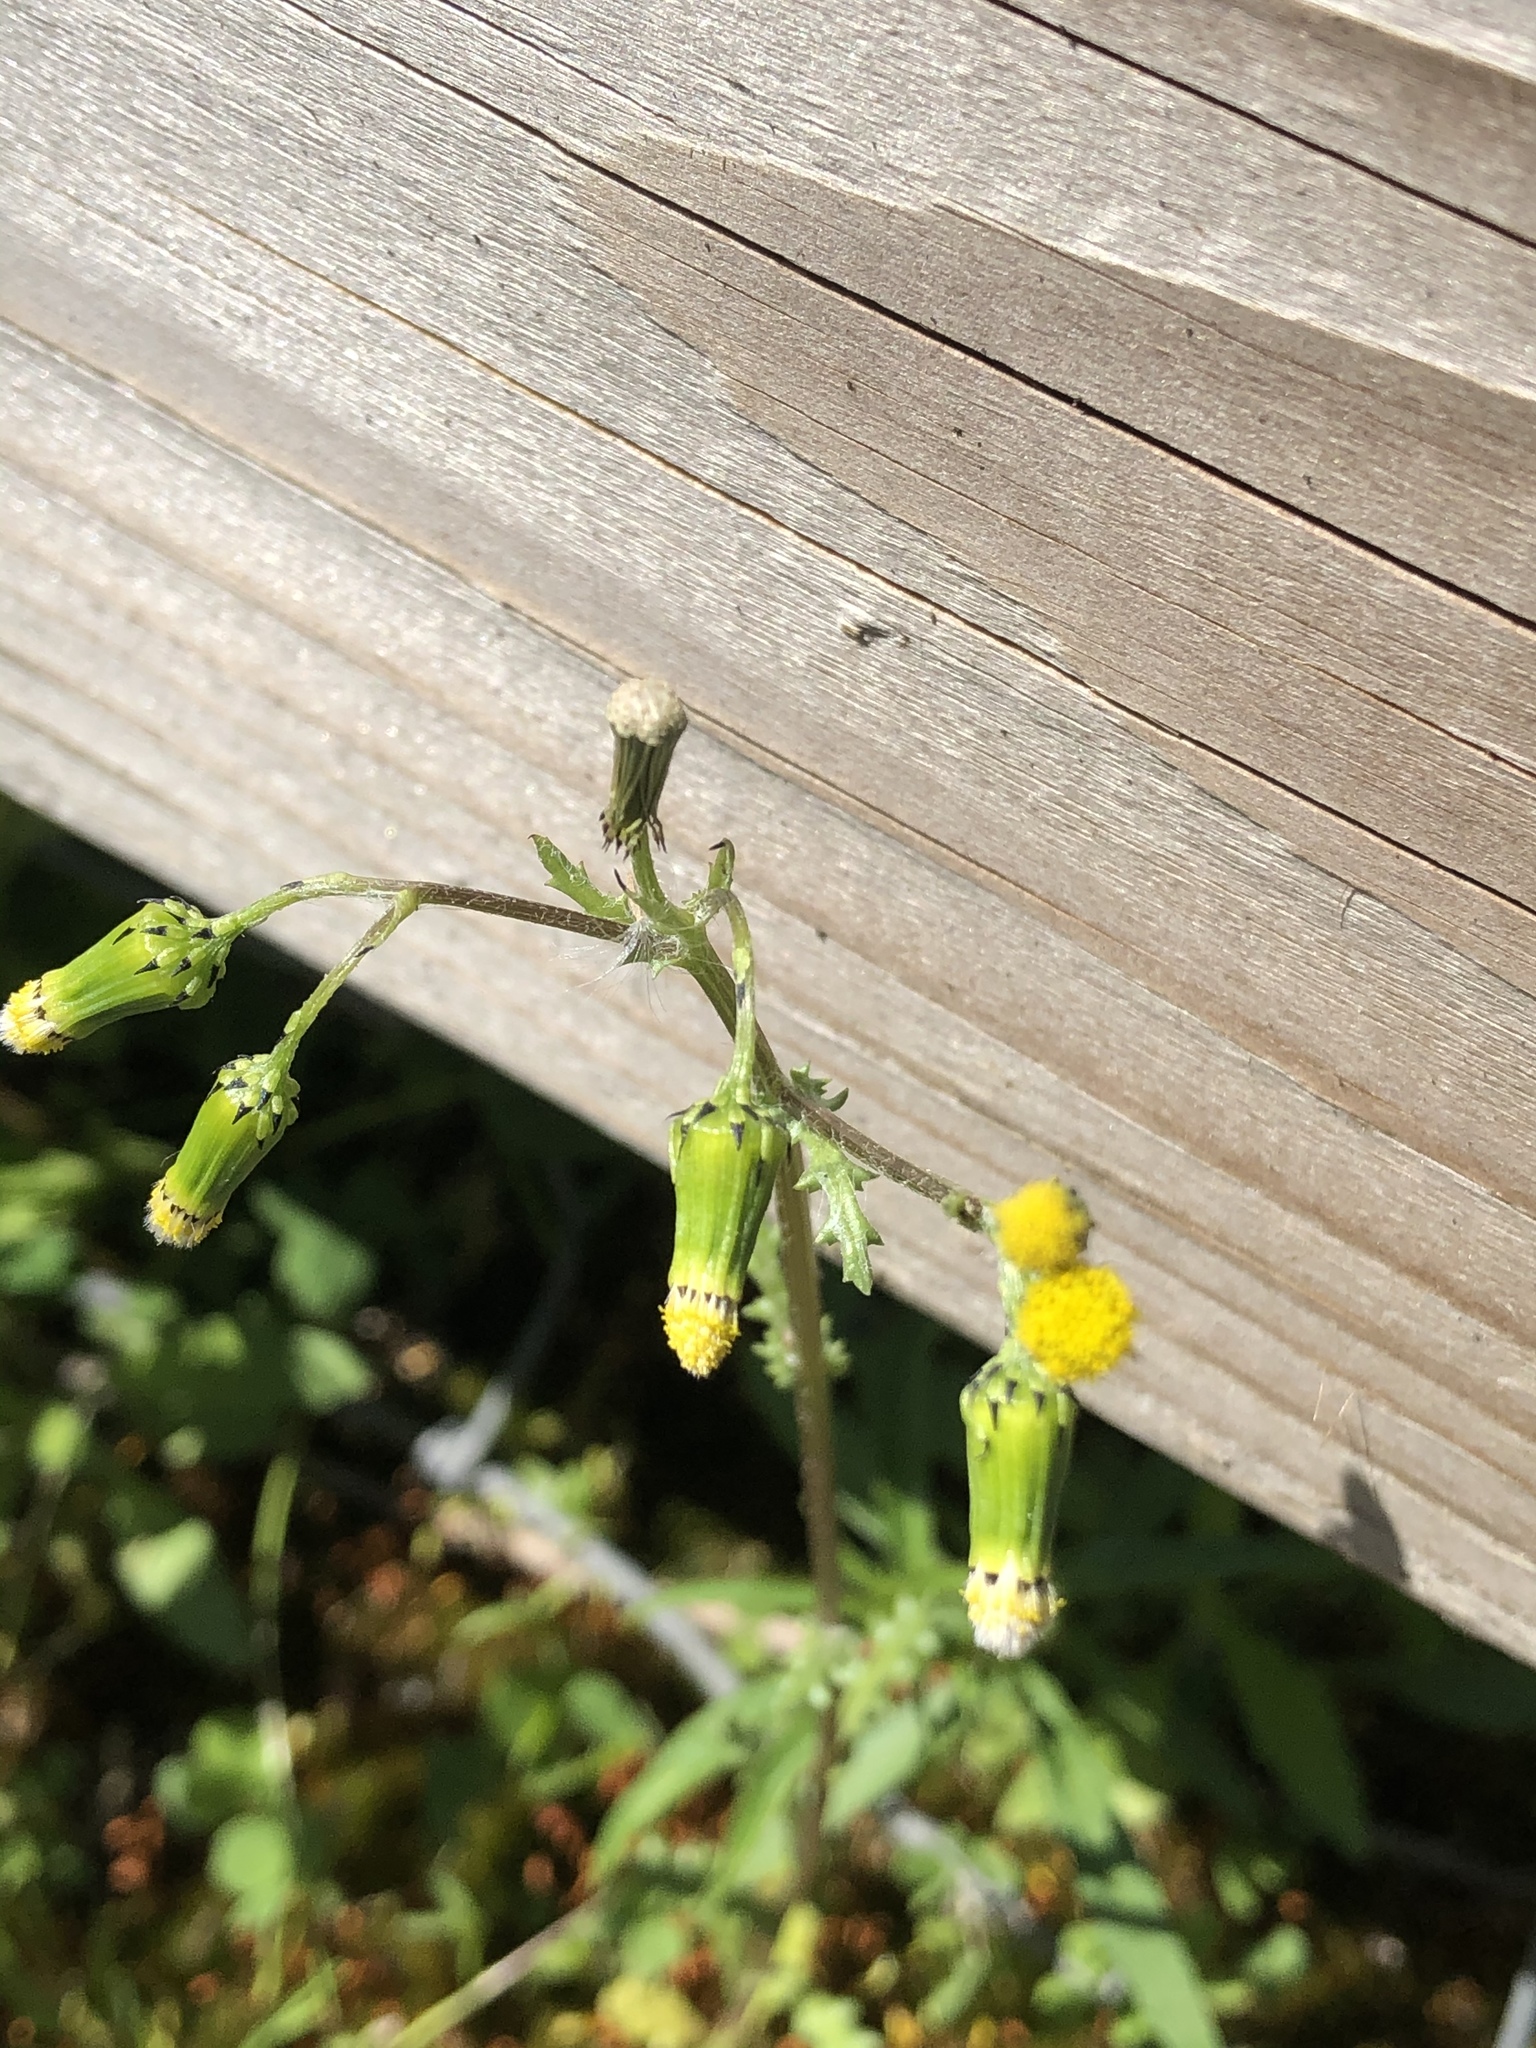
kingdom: Plantae
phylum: Tracheophyta
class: Magnoliopsida
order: Asterales
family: Asteraceae
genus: Senecio
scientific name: Senecio vulgaris
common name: Old-man-in-the-spring
